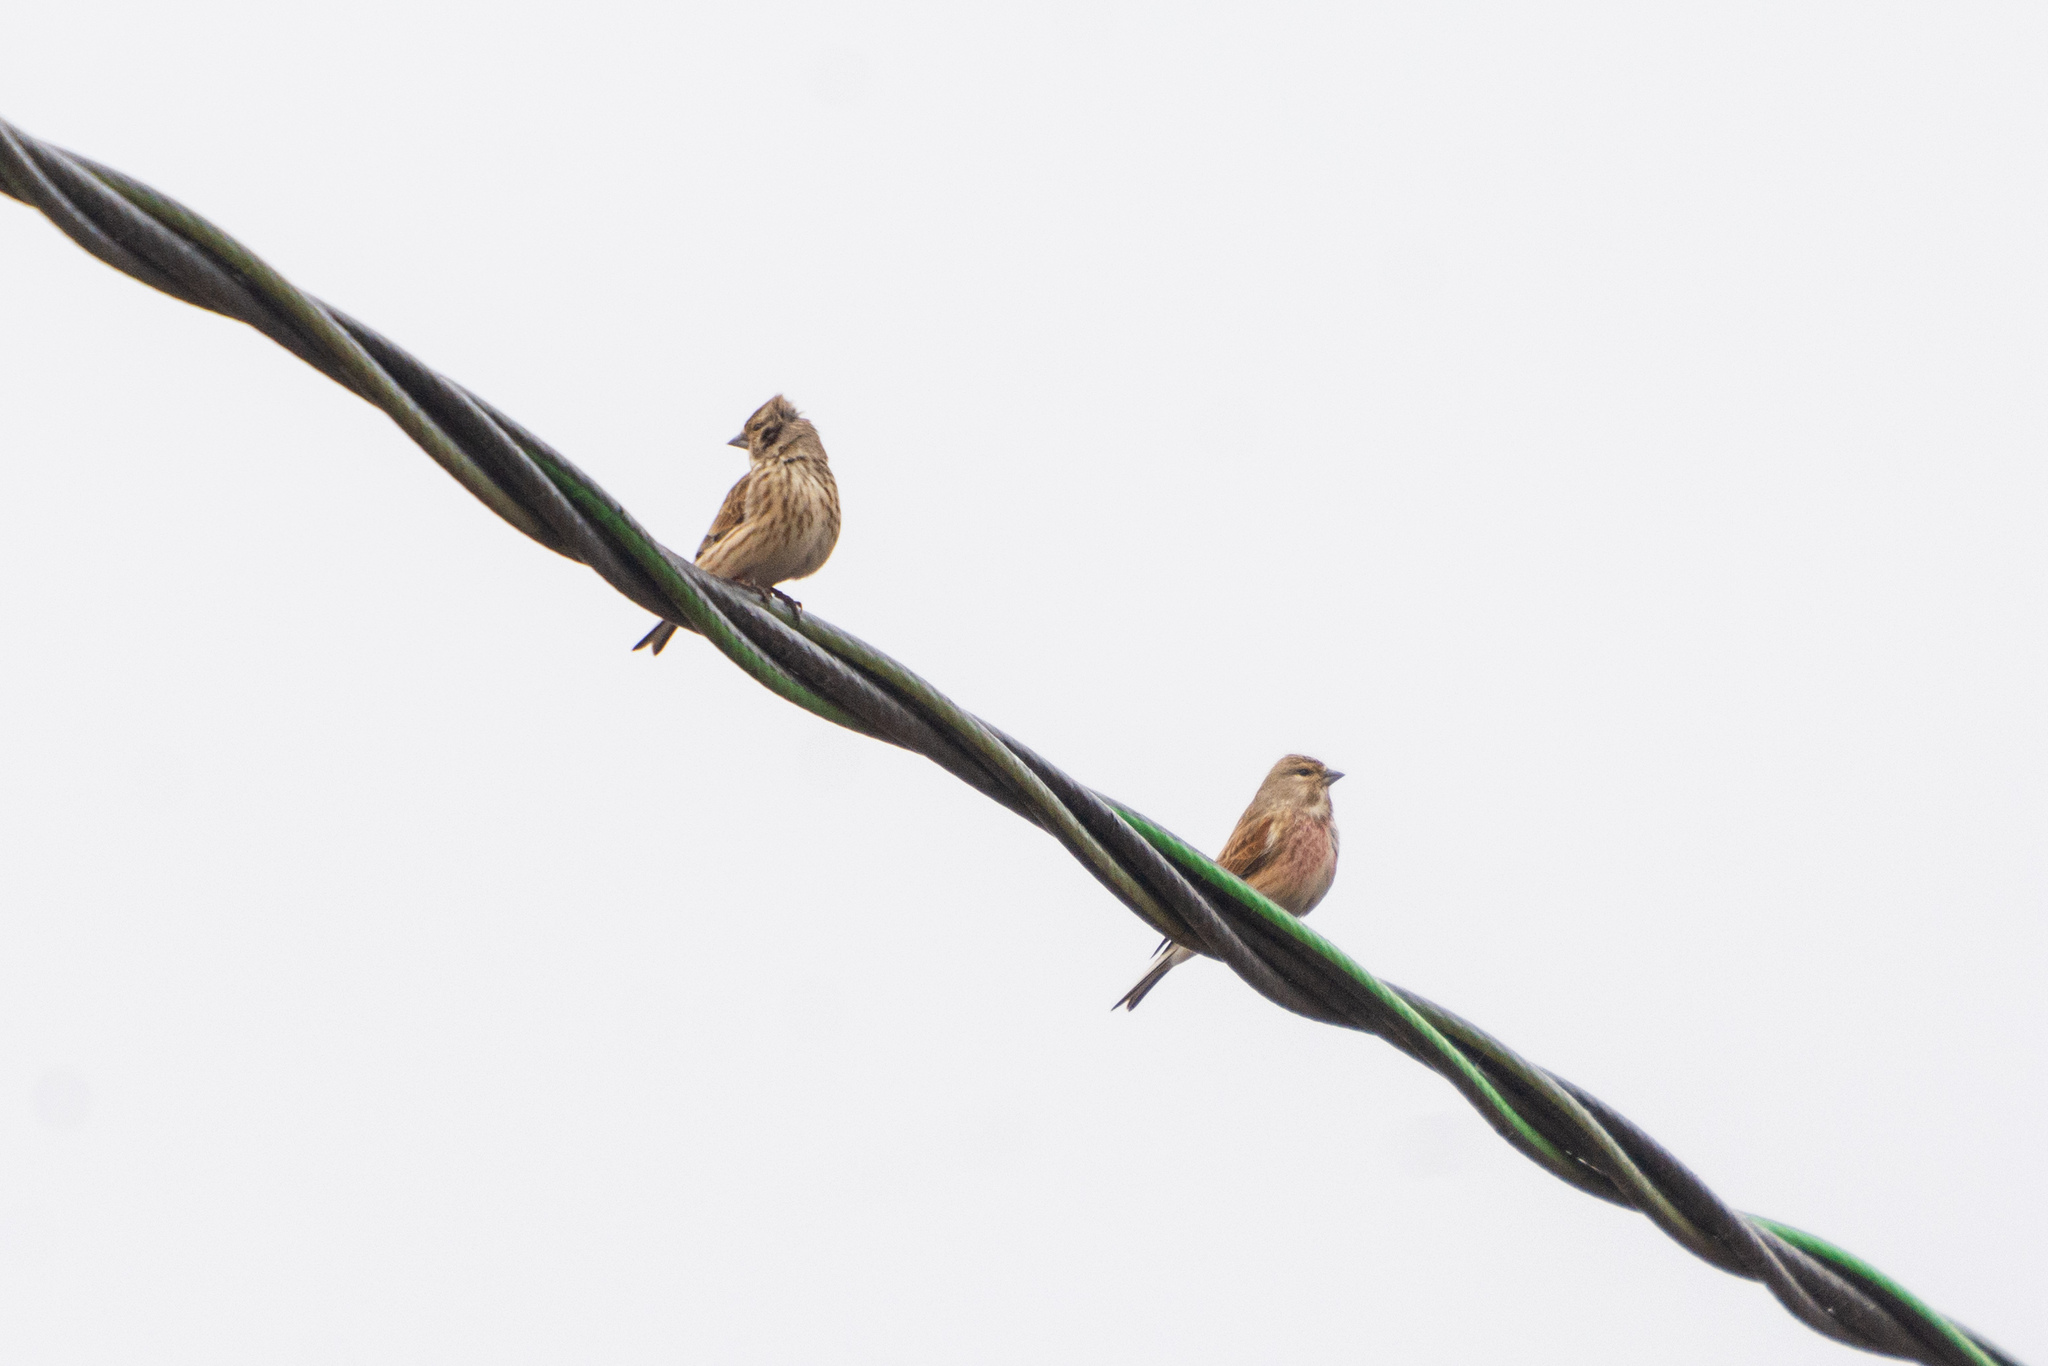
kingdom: Animalia
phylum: Chordata
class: Aves
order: Passeriformes
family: Fringillidae
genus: Linaria
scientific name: Linaria cannabina
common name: Common linnet
